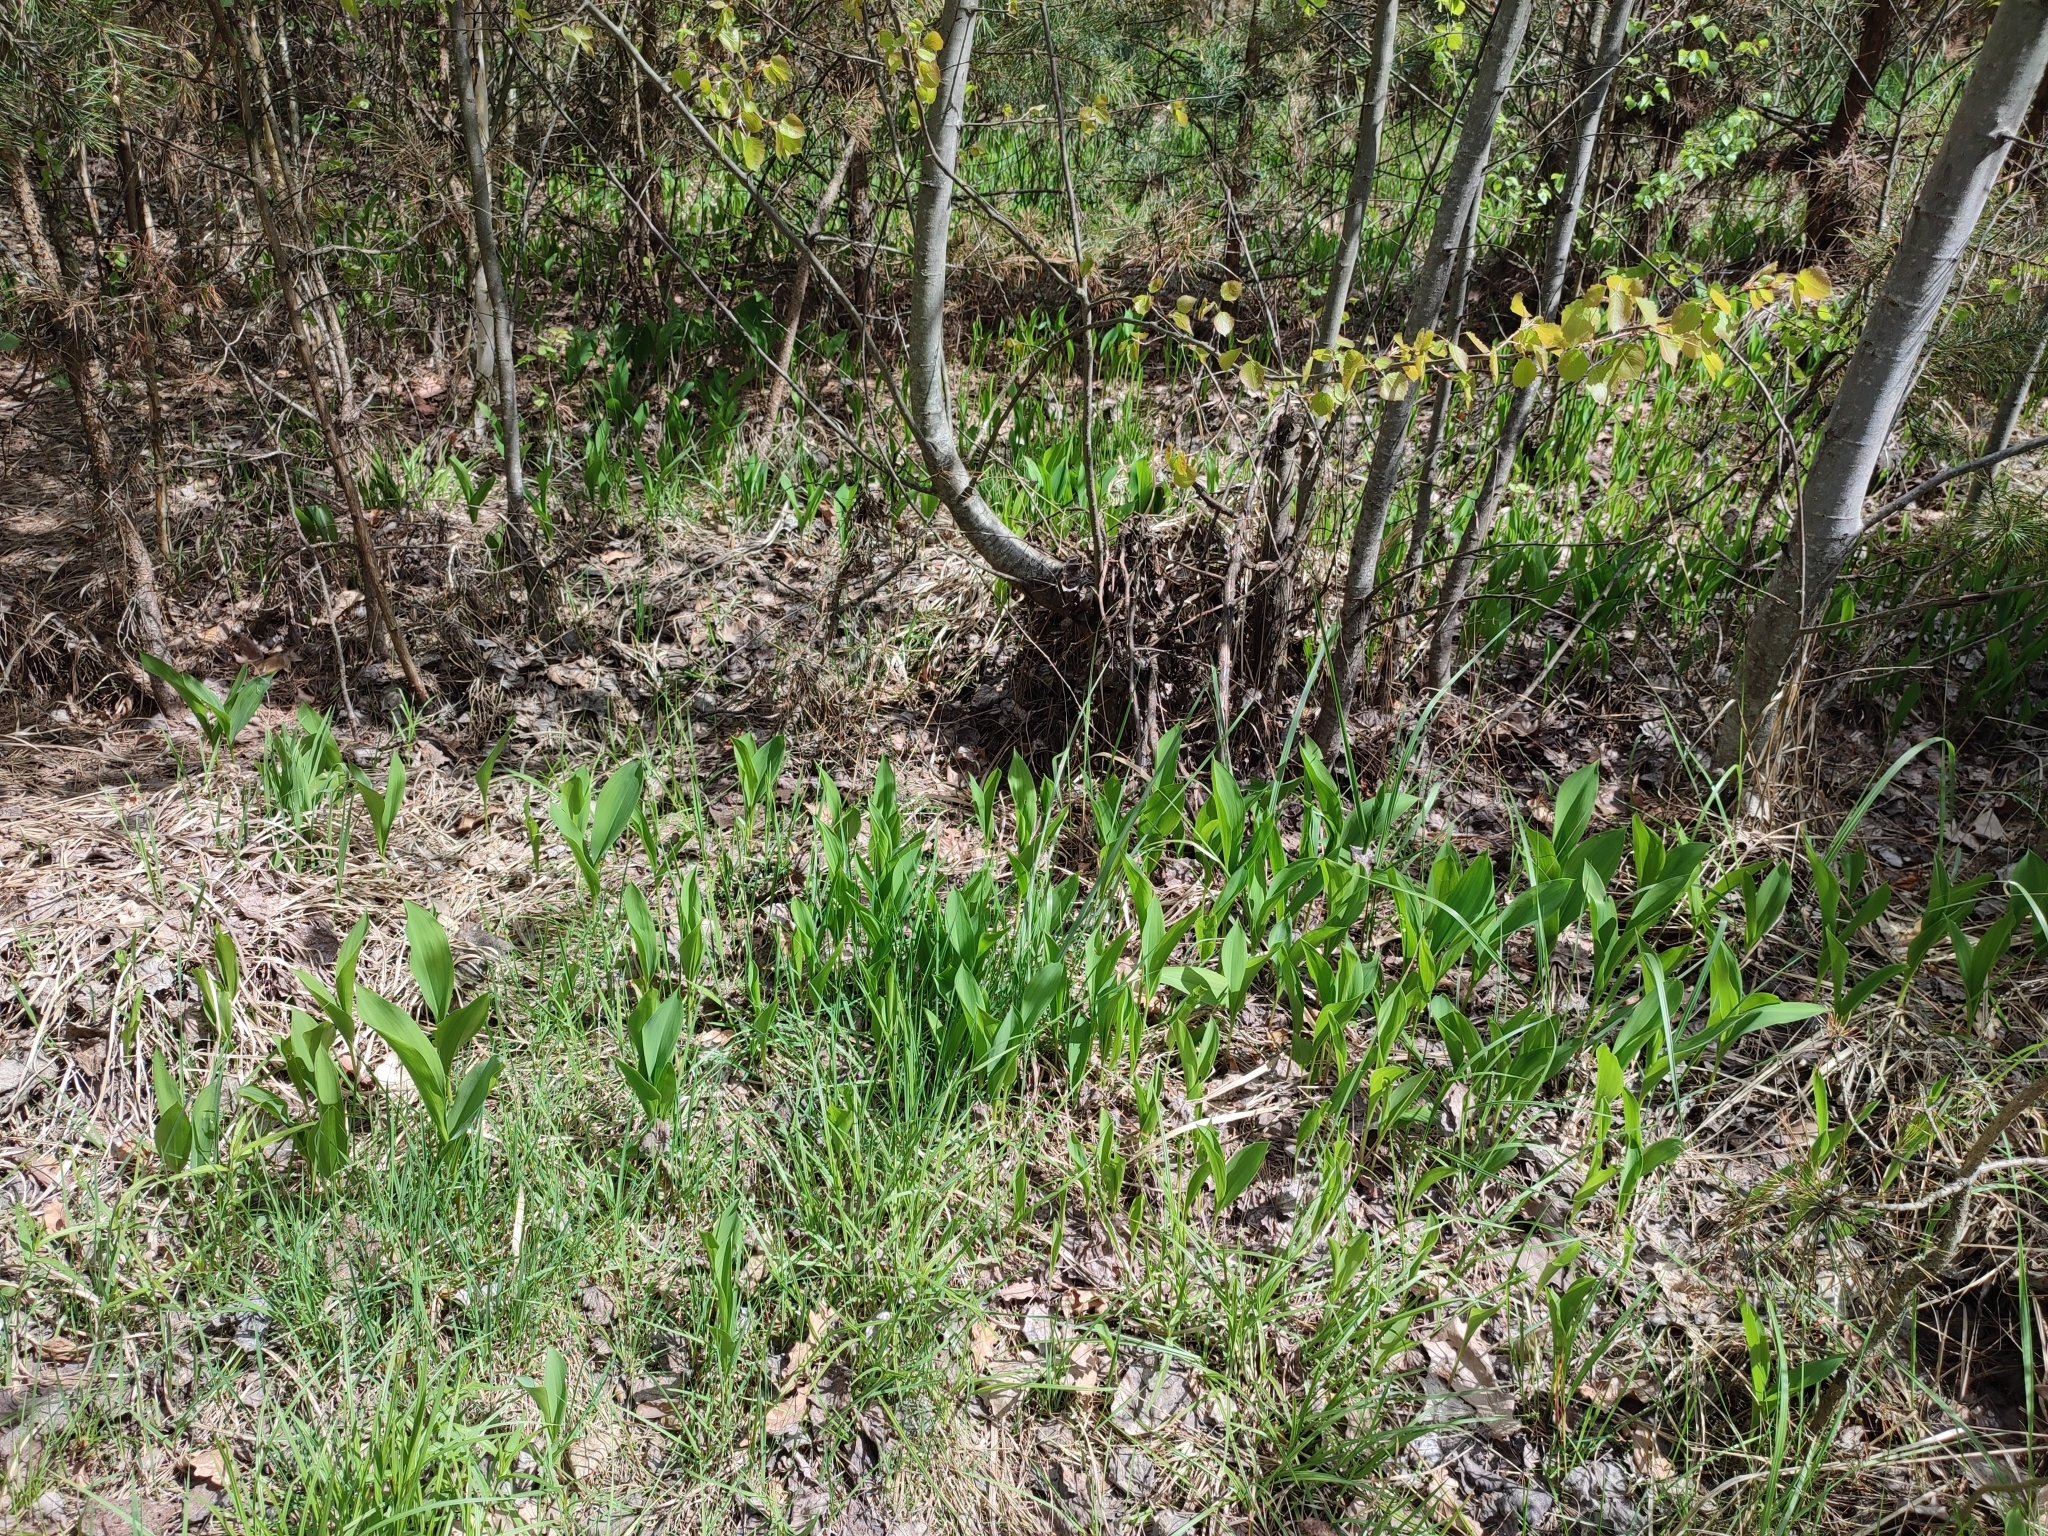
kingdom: Plantae
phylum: Tracheophyta
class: Liliopsida
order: Asparagales
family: Asparagaceae
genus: Convallaria
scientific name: Convallaria majalis
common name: Lily-of-the-valley
